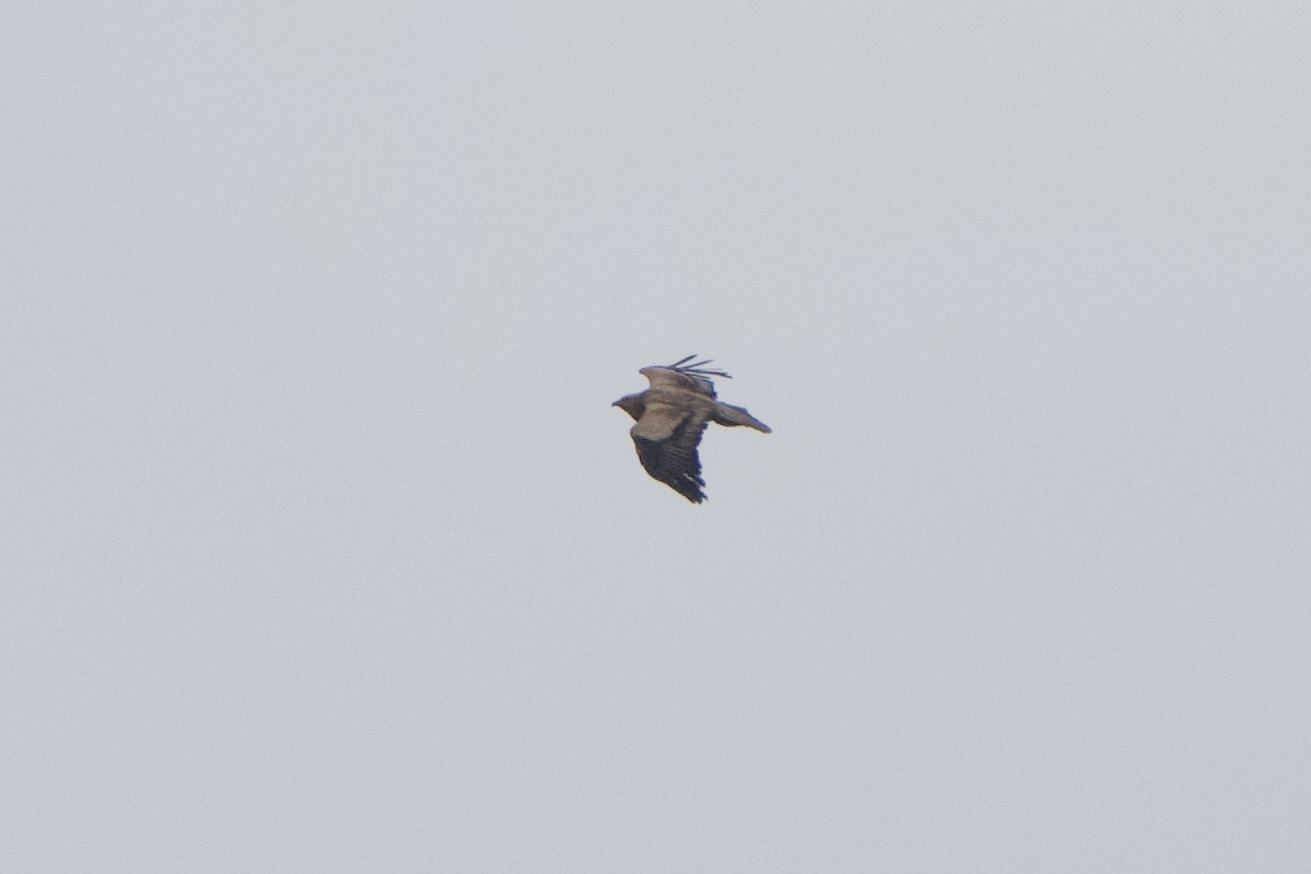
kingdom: Animalia
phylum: Chordata
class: Aves
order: Accipitriformes
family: Accipitridae
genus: Neophron
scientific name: Neophron percnopterus
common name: Egyptian vulture
